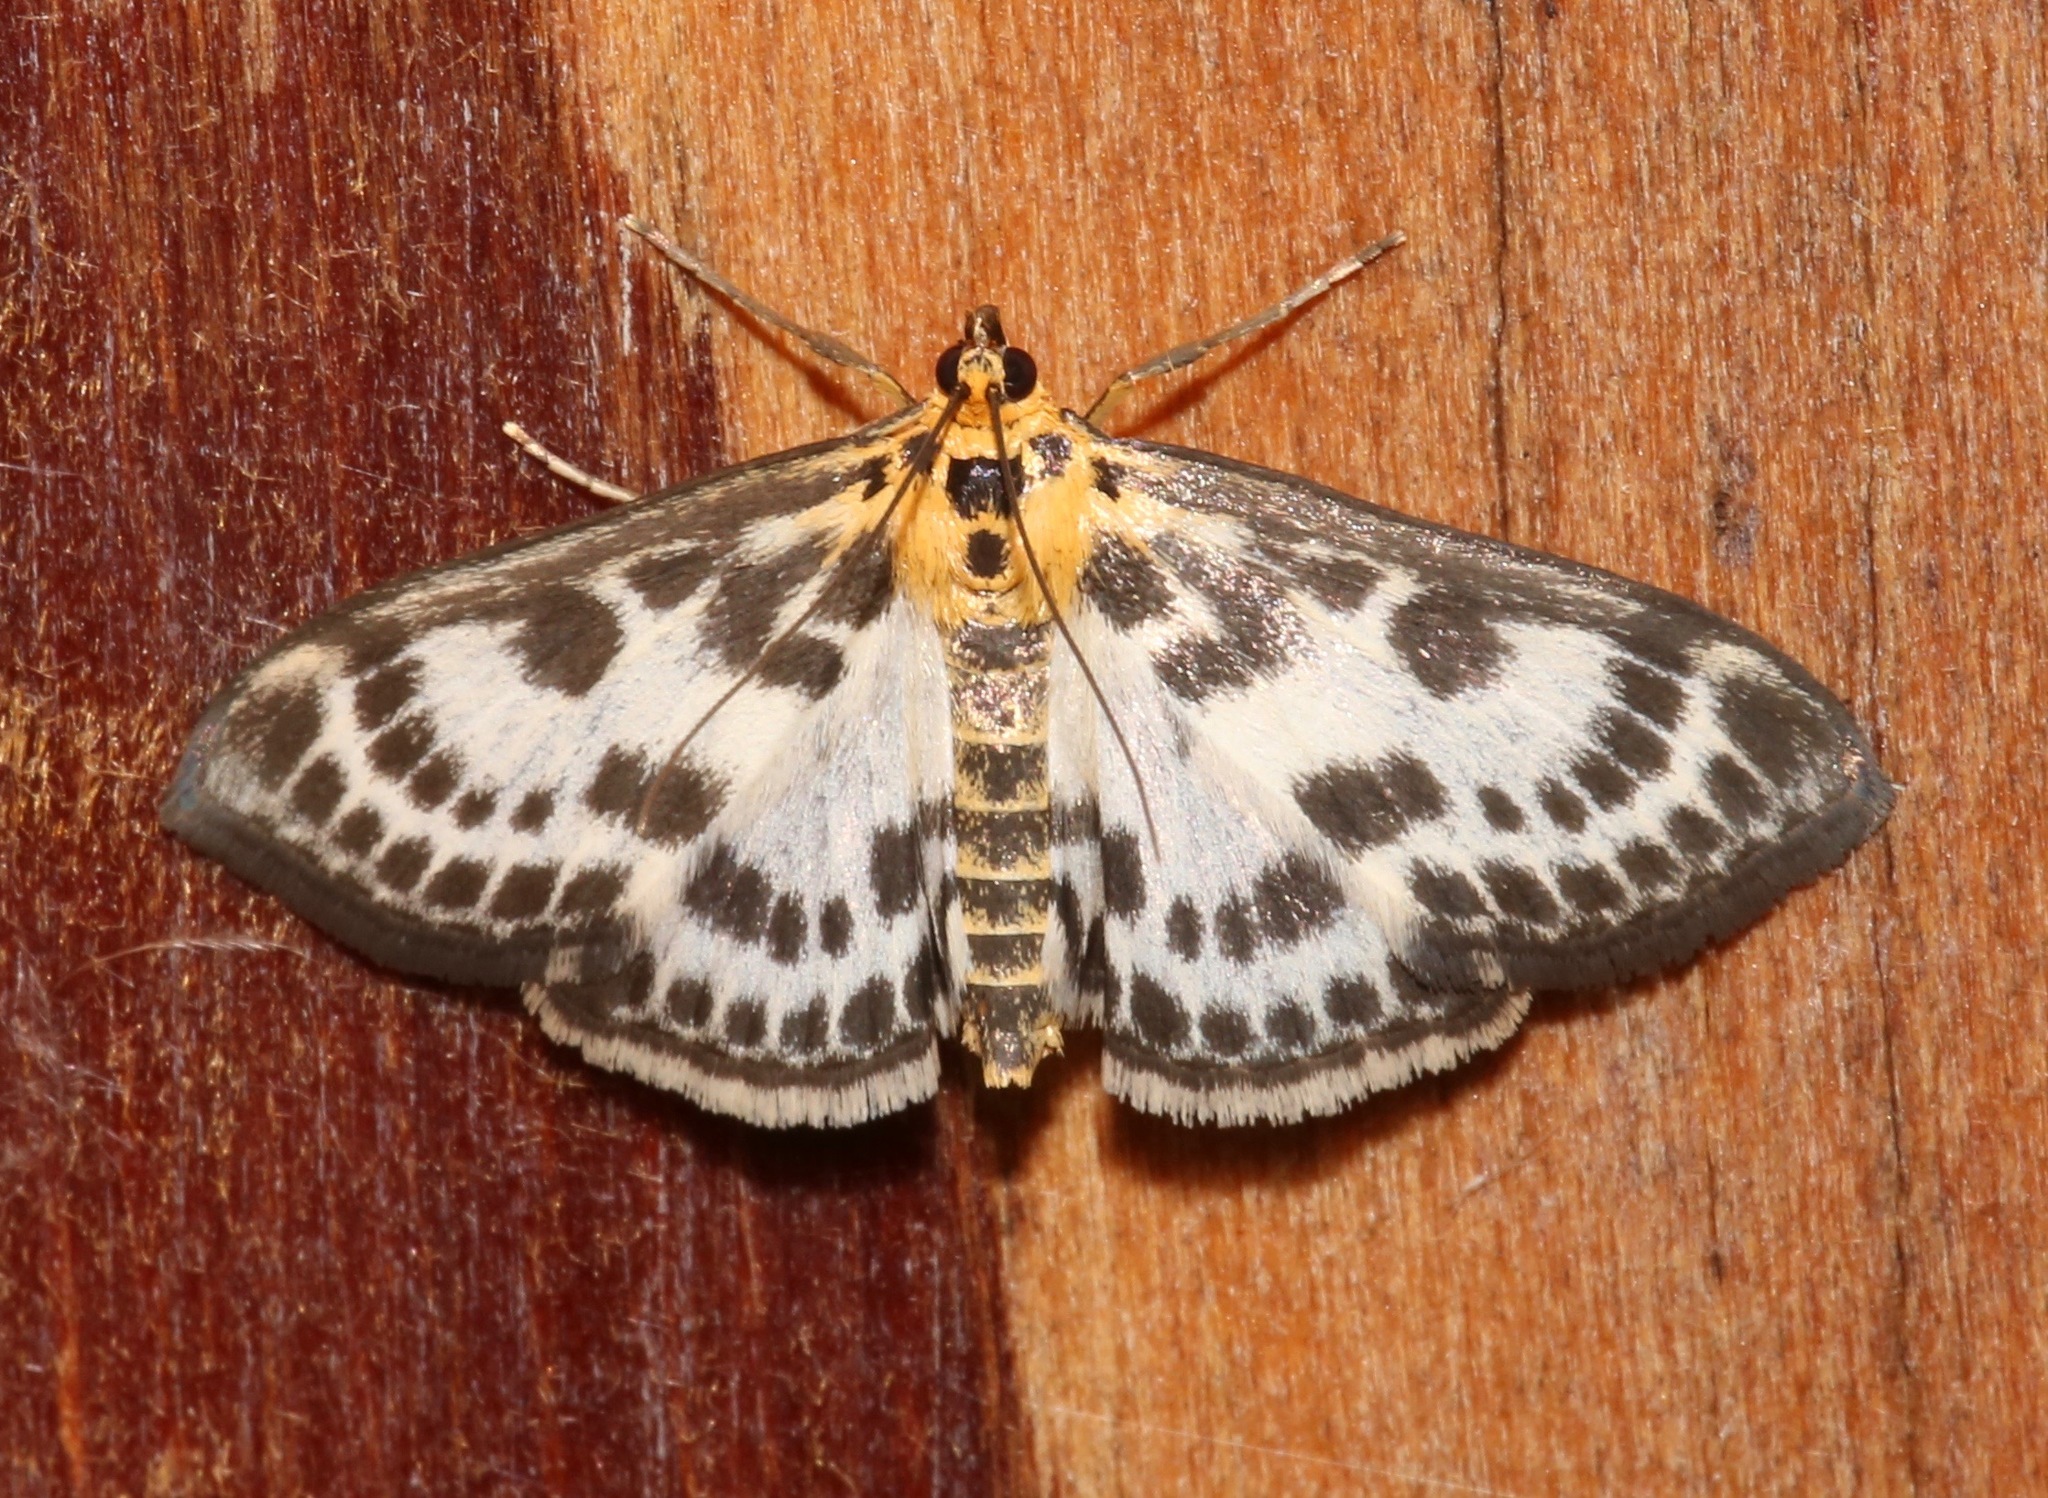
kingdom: Animalia
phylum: Arthropoda
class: Insecta
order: Lepidoptera
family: Crambidae
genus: Anania
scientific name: Anania hortulata
